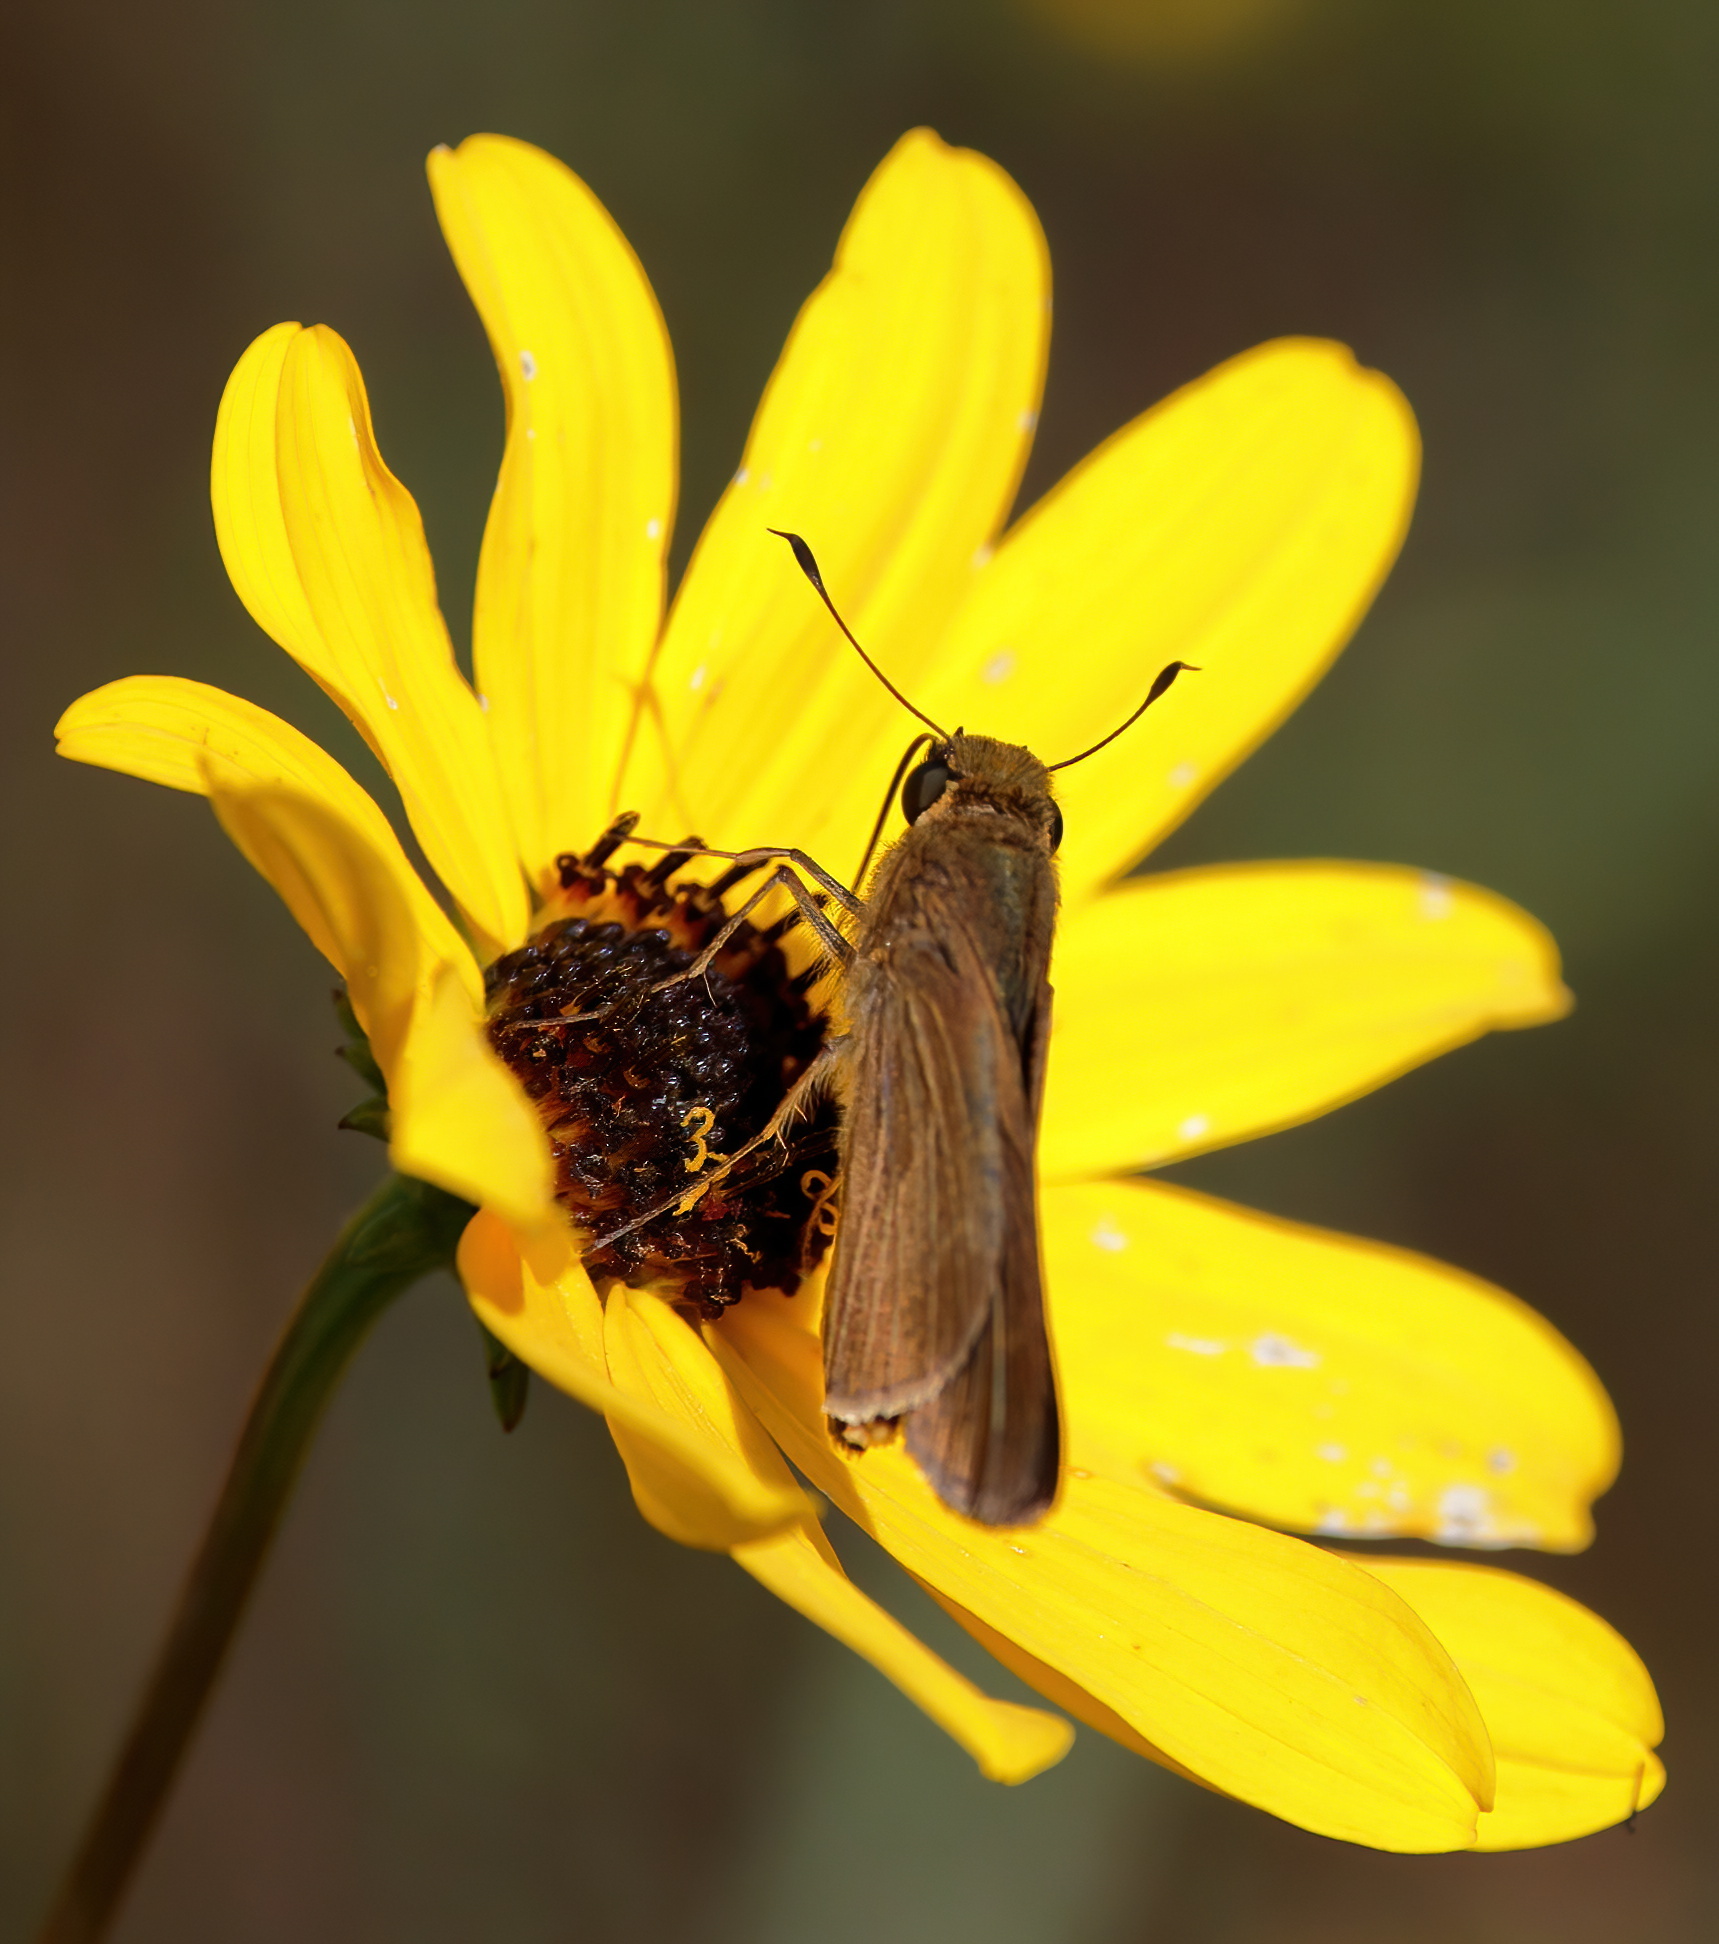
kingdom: Animalia
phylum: Arthropoda
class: Insecta
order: Lepidoptera
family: Hesperiidae
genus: Panoquina
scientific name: Panoquina ocola
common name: Ocola skipper
